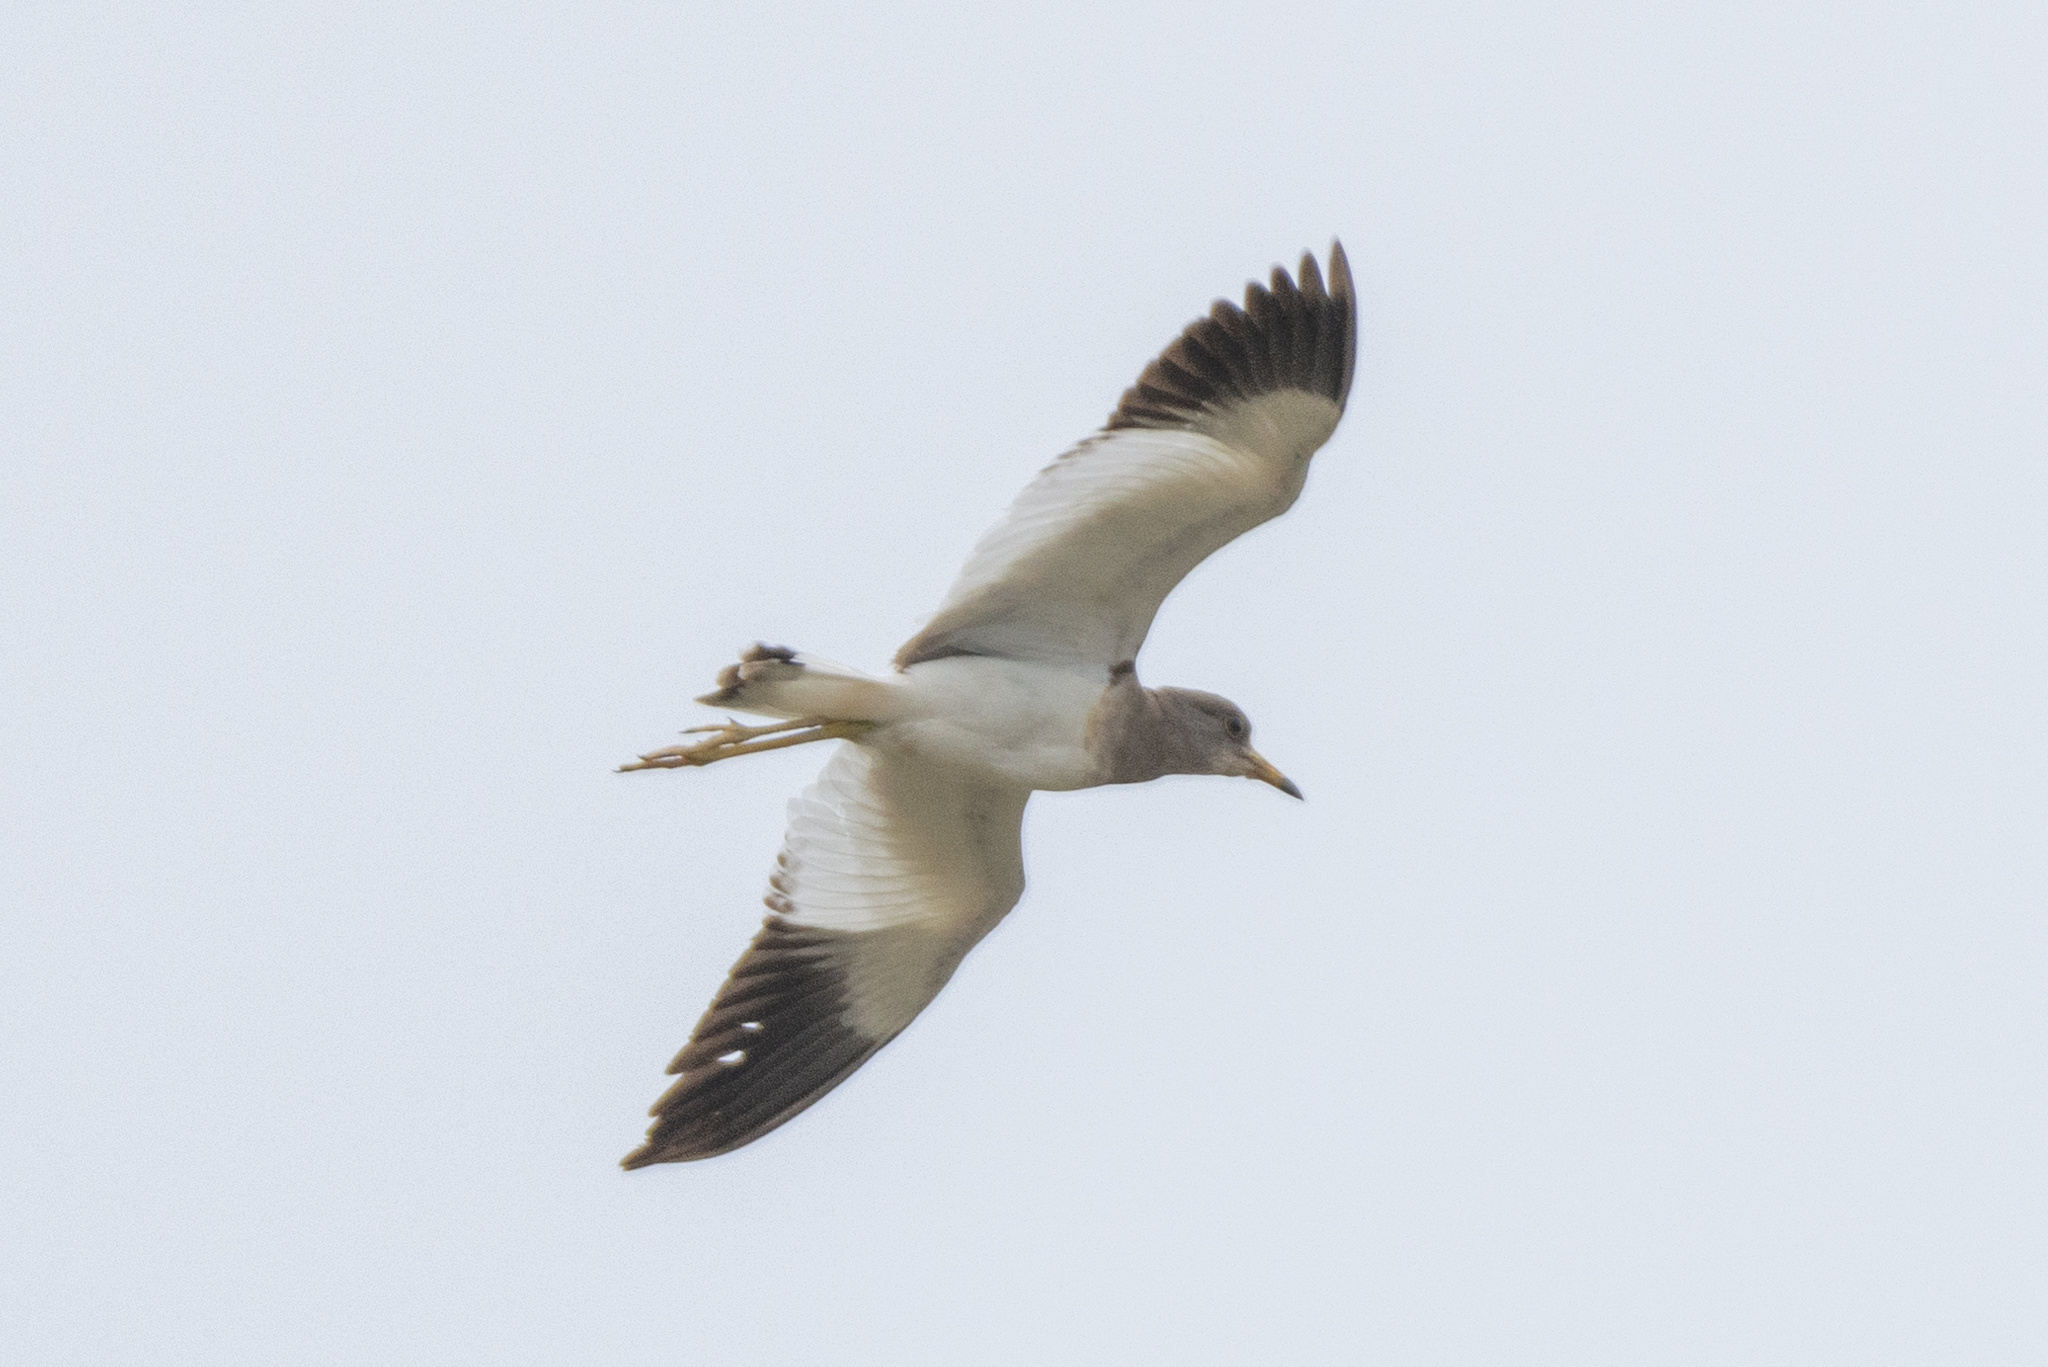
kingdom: Animalia
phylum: Chordata
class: Aves
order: Charadriiformes
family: Charadriidae
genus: Vanellus
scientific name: Vanellus cinereus
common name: Grey-headed lapwing
